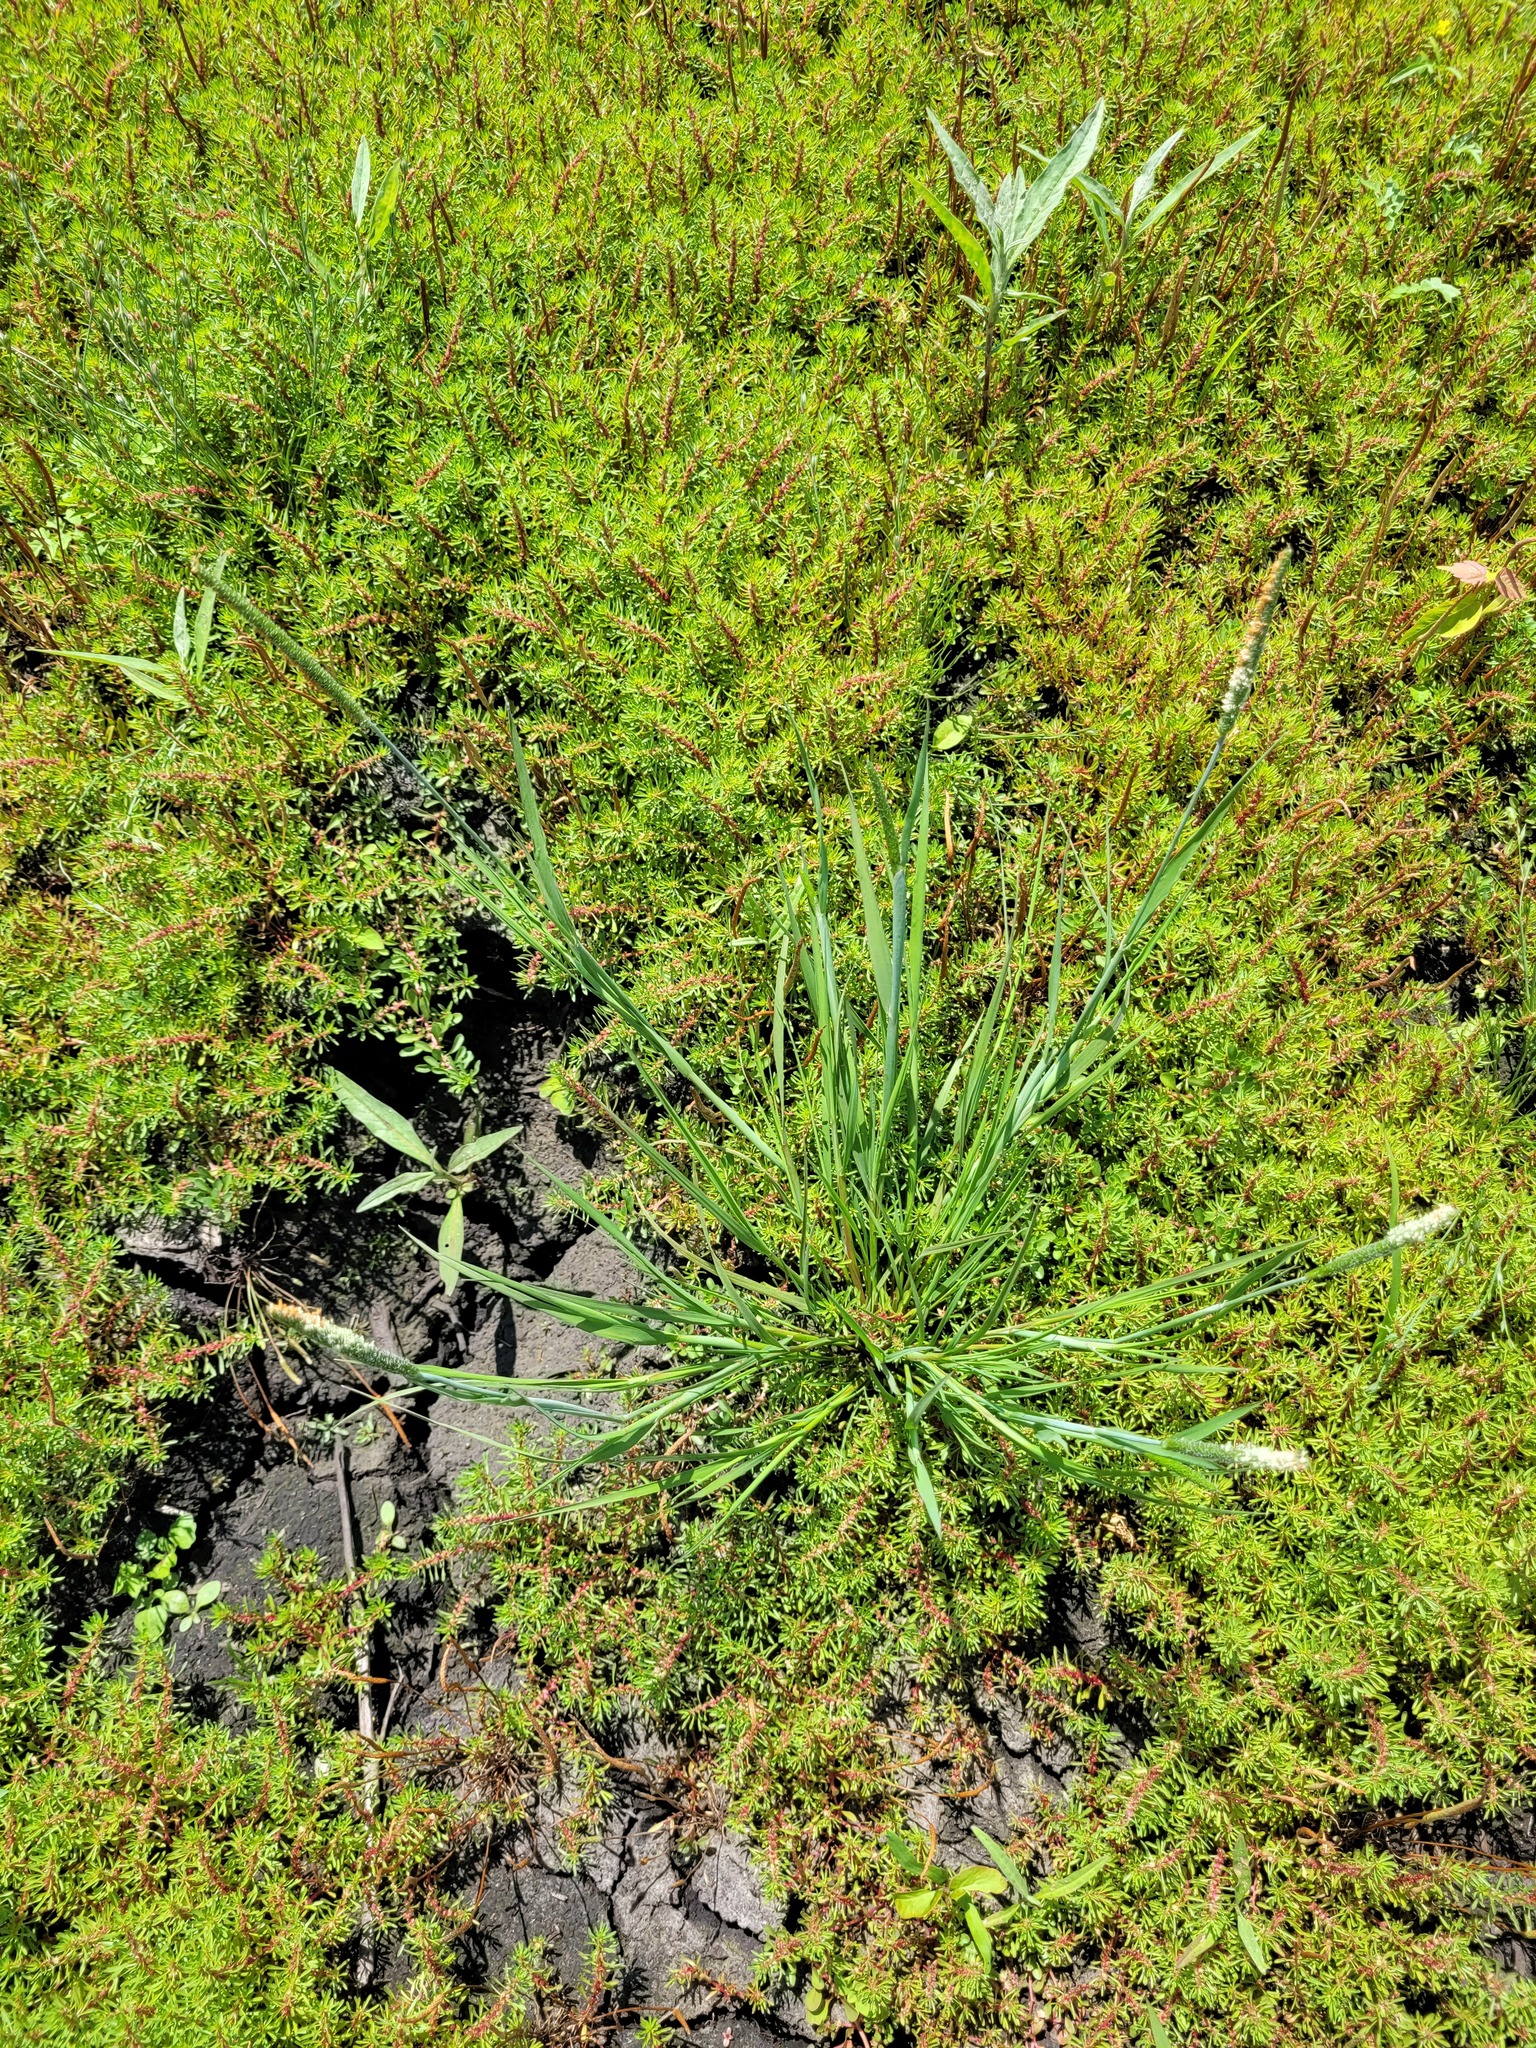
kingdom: Plantae
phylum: Tracheophyta
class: Liliopsida
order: Poales
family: Poaceae
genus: Alopecurus
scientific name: Alopecurus aequalis
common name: Orange foxtail
